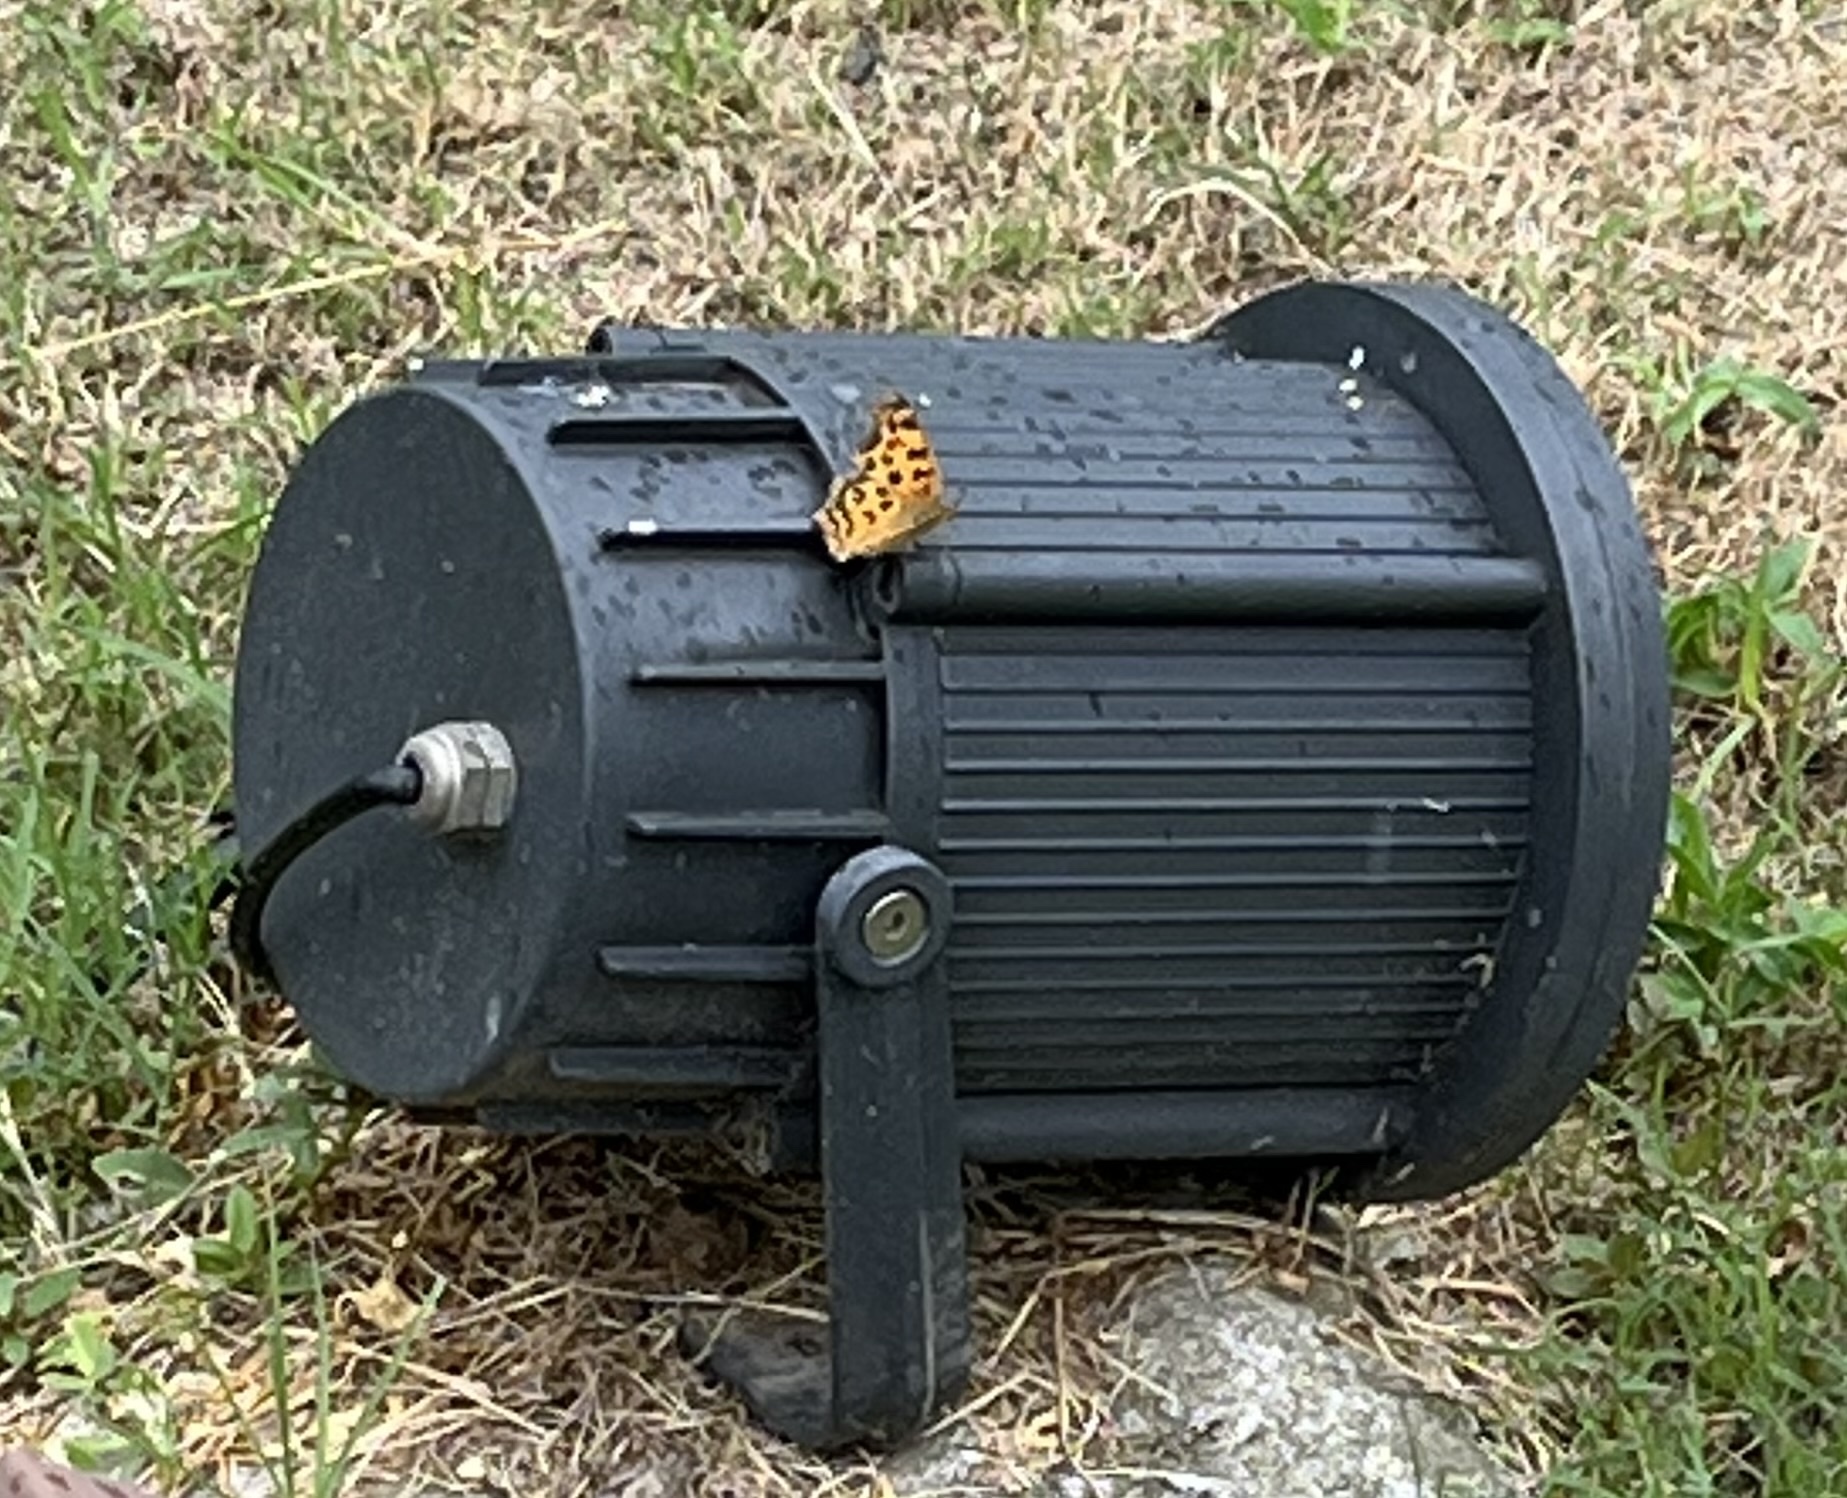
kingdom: Animalia
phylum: Arthropoda
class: Insecta
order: Lepidoptera
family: Nymphalidae
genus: Polygonia
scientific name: Polygonia c-aureum
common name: Asian comma
